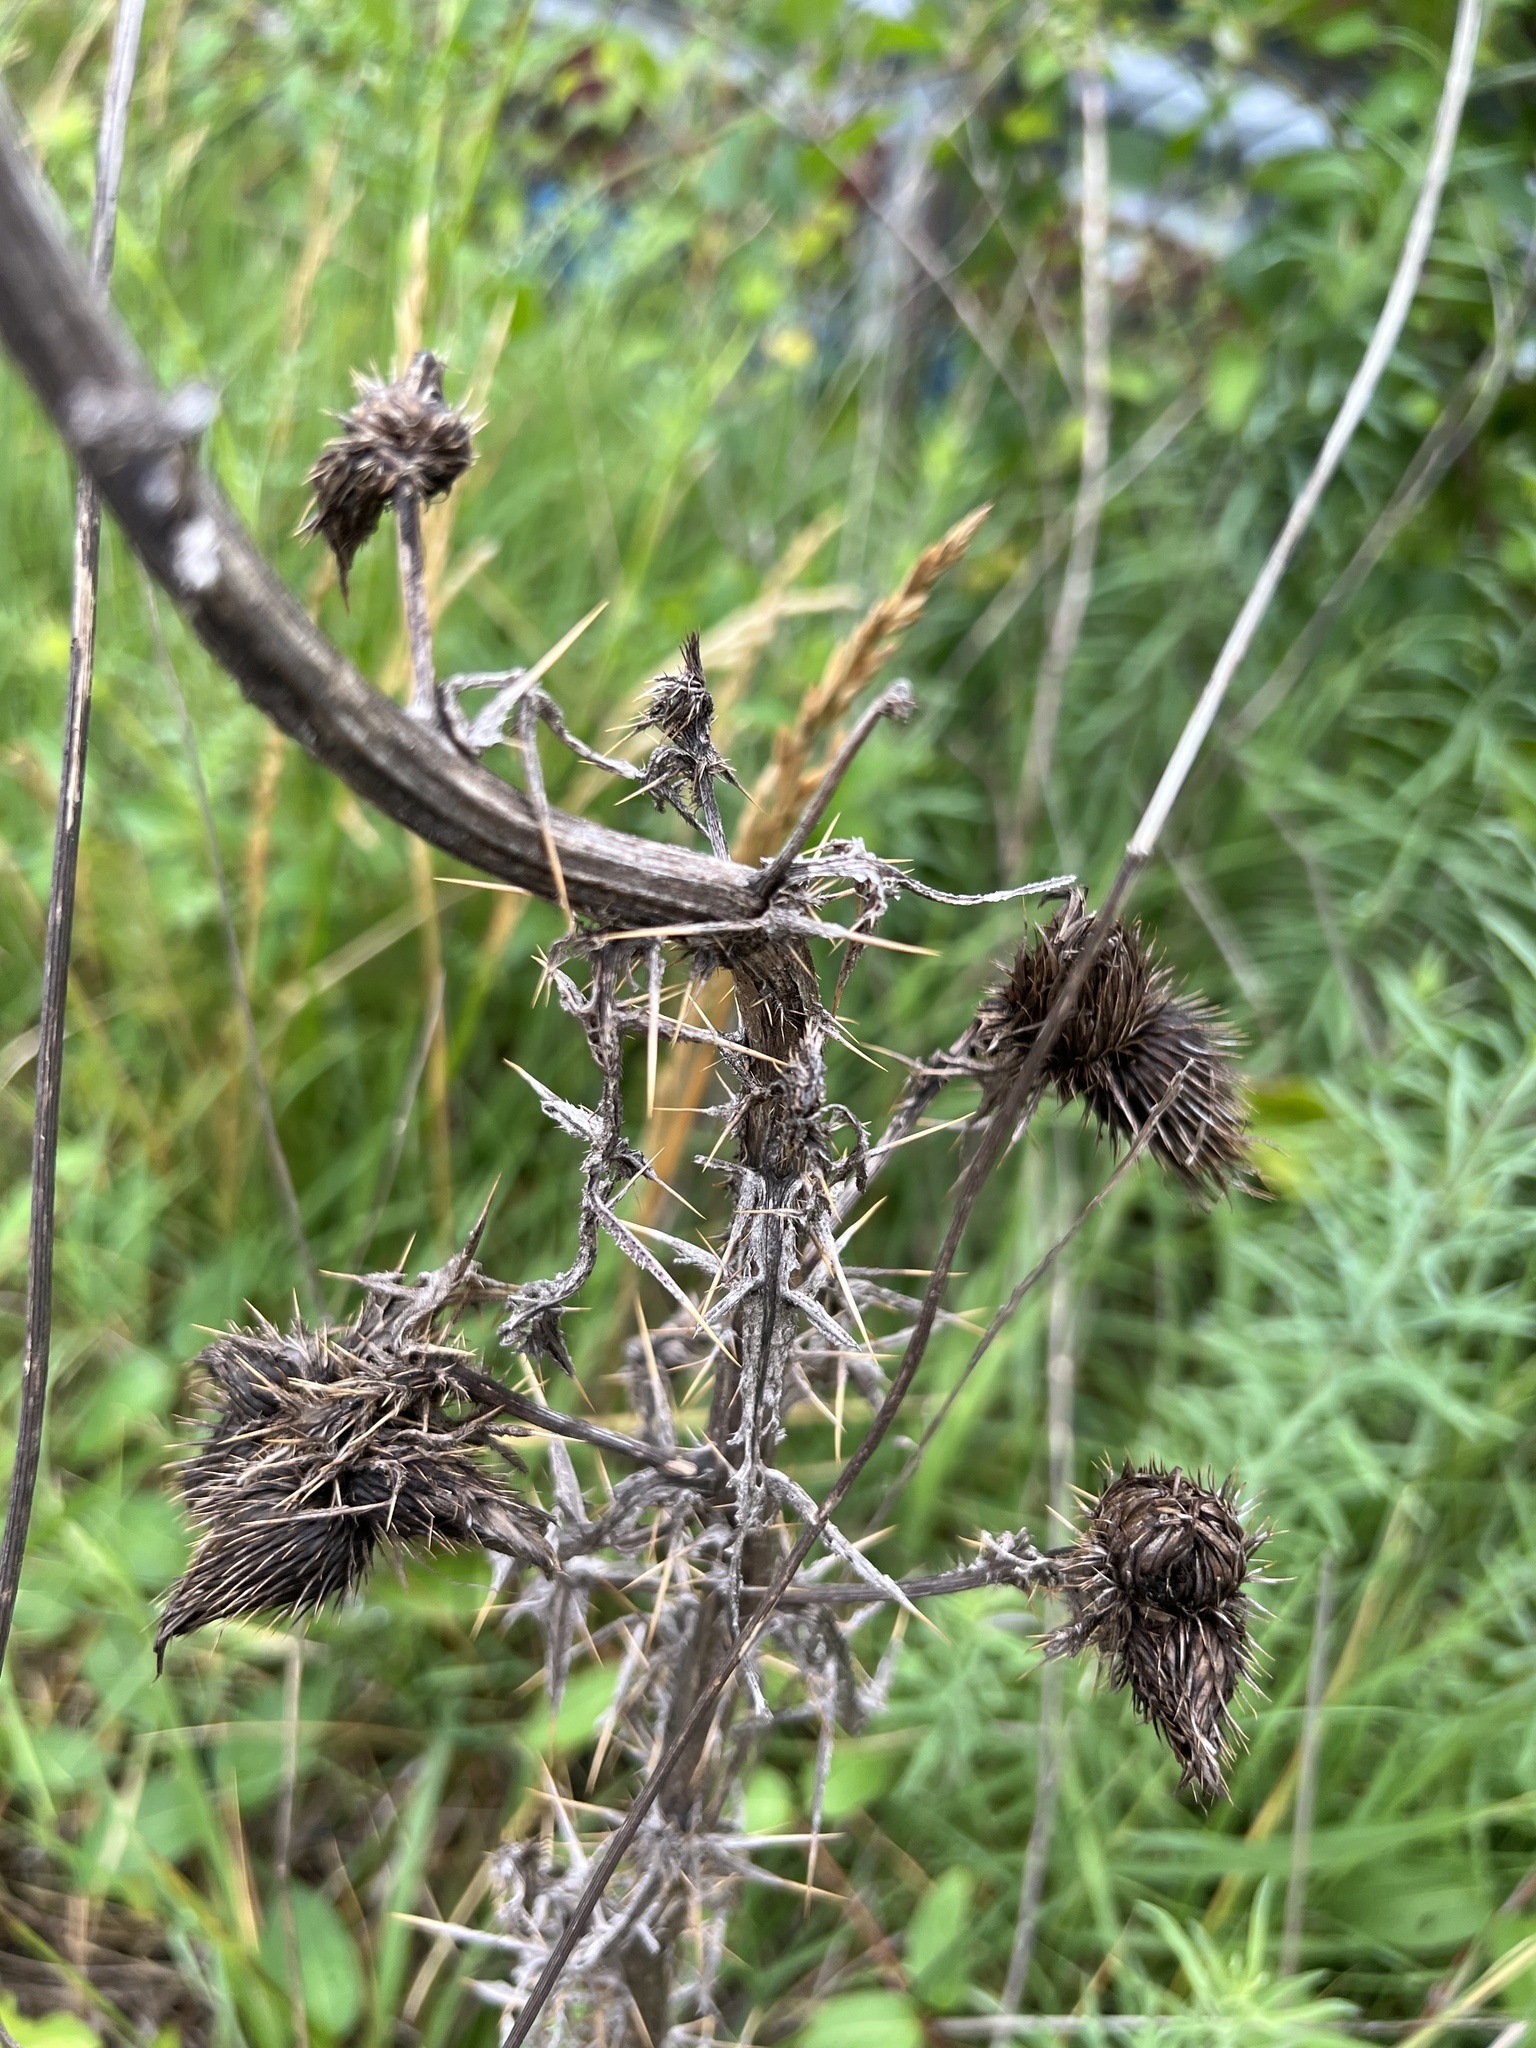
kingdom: Plantae
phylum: Tracheophyta
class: Magnoliopsida
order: Asterales
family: Asteraceae
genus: Cirsium
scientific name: Cirsium vulgare
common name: Bull thistle
